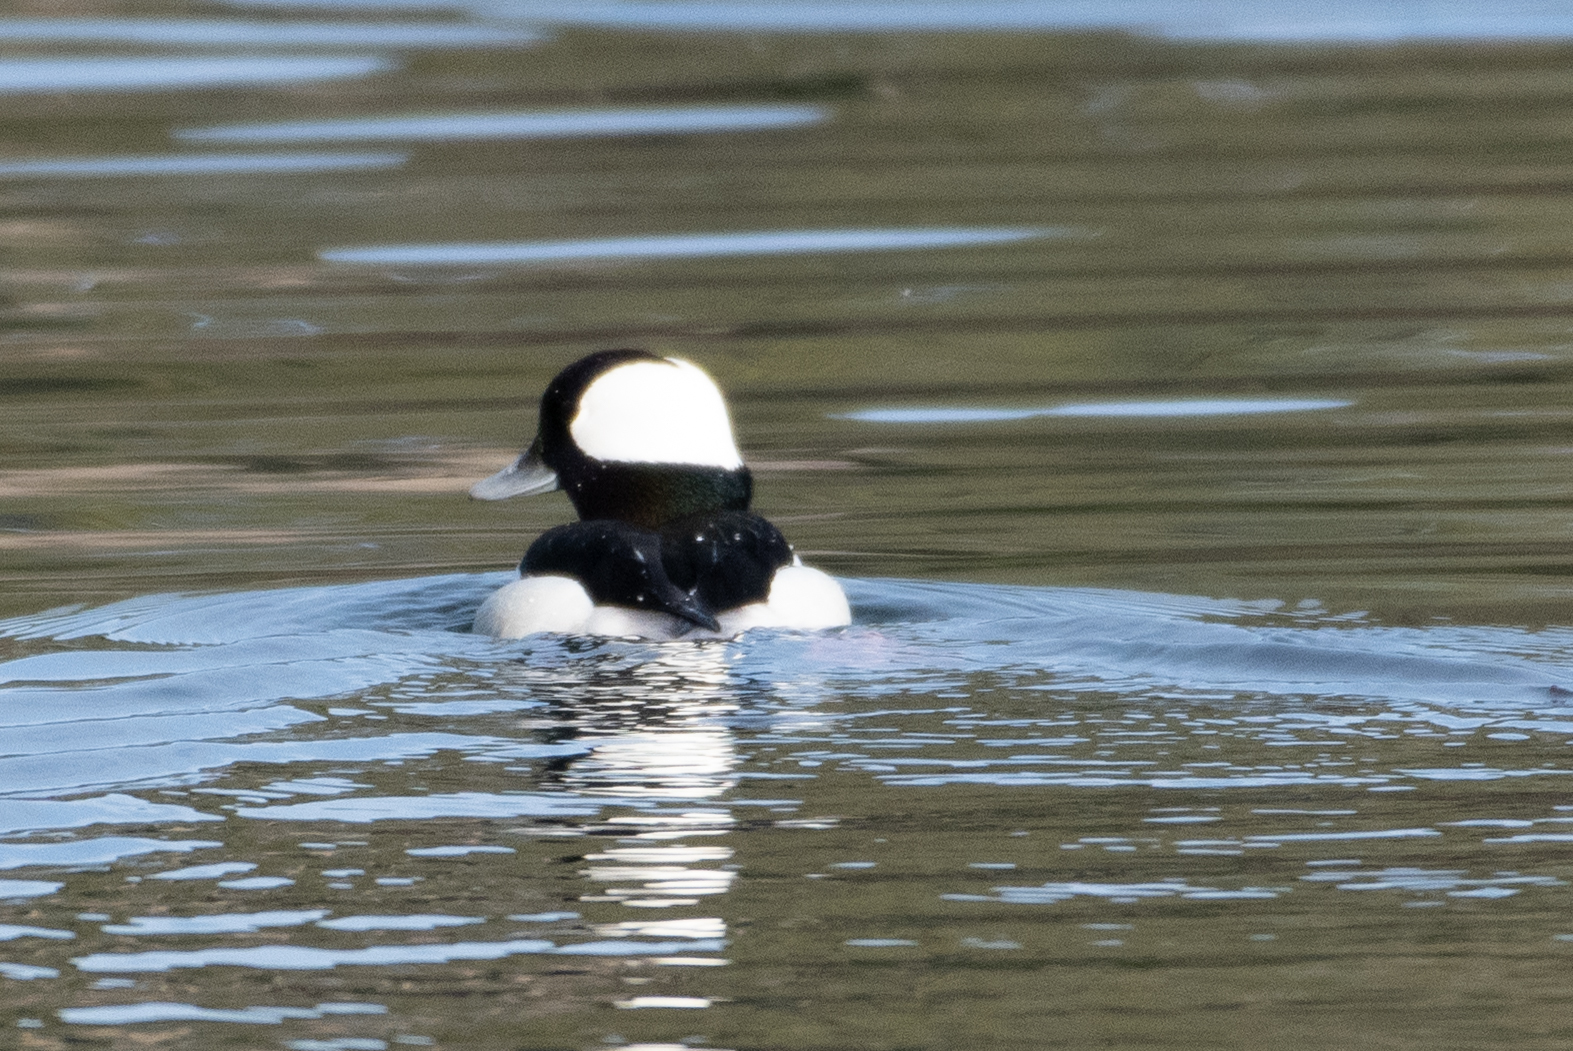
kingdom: Animalia
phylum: Chordata
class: Aves
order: Anseriformes
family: Anatidae
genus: Bucephala
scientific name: Bucephala albeola
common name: Bufflehead
